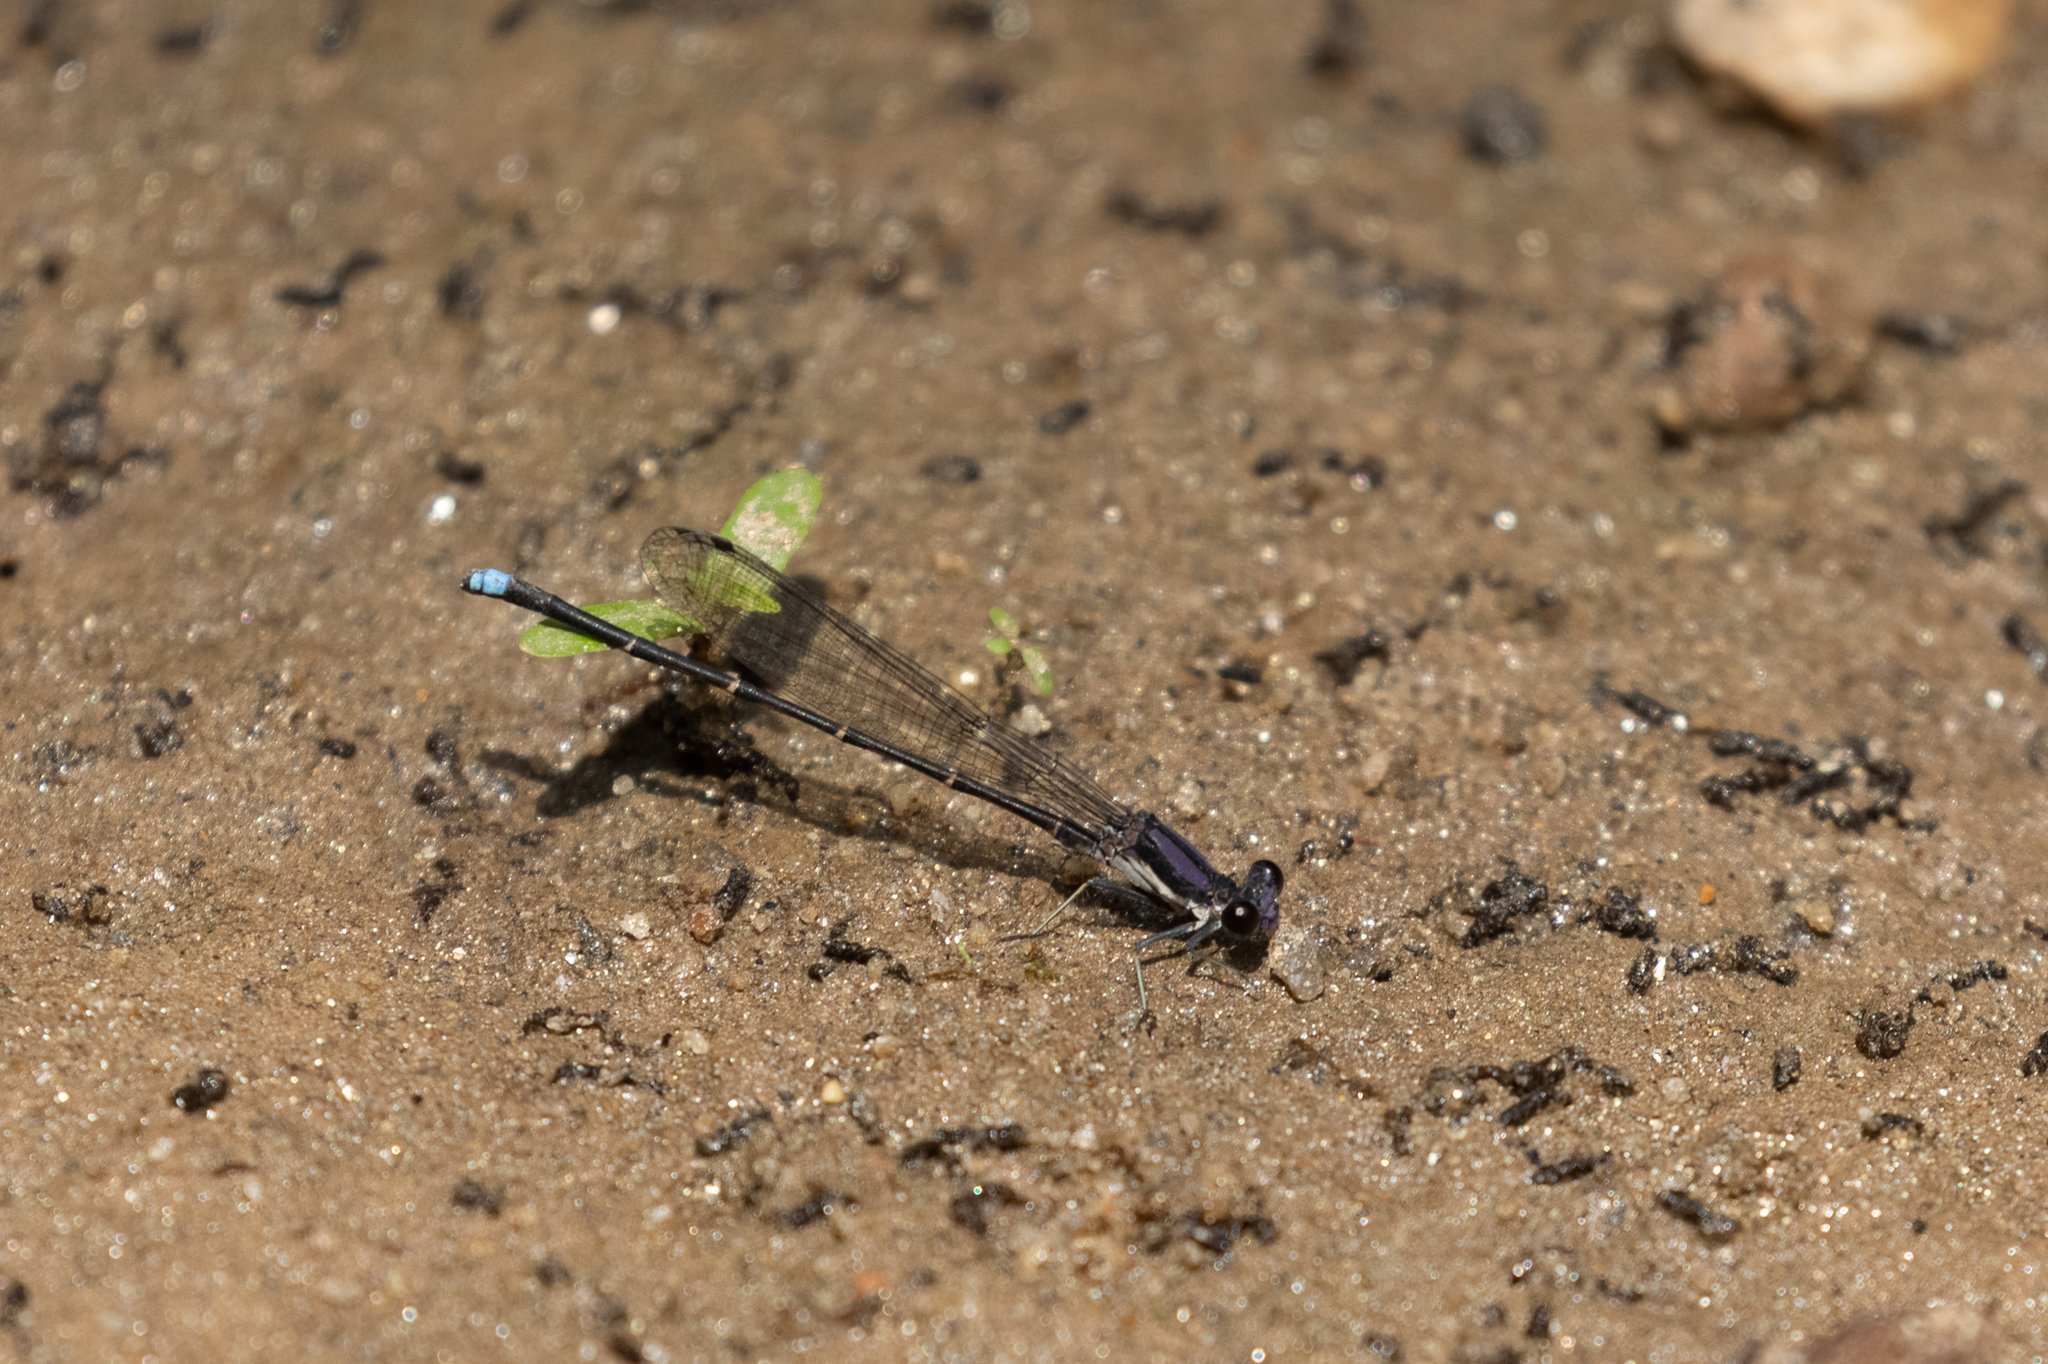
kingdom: Animalia
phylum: Arthropoda
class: Insecta
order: Odonata
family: Coenagrionidae
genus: Argia
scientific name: Argia tibialis
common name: Blue-tipped dancer
